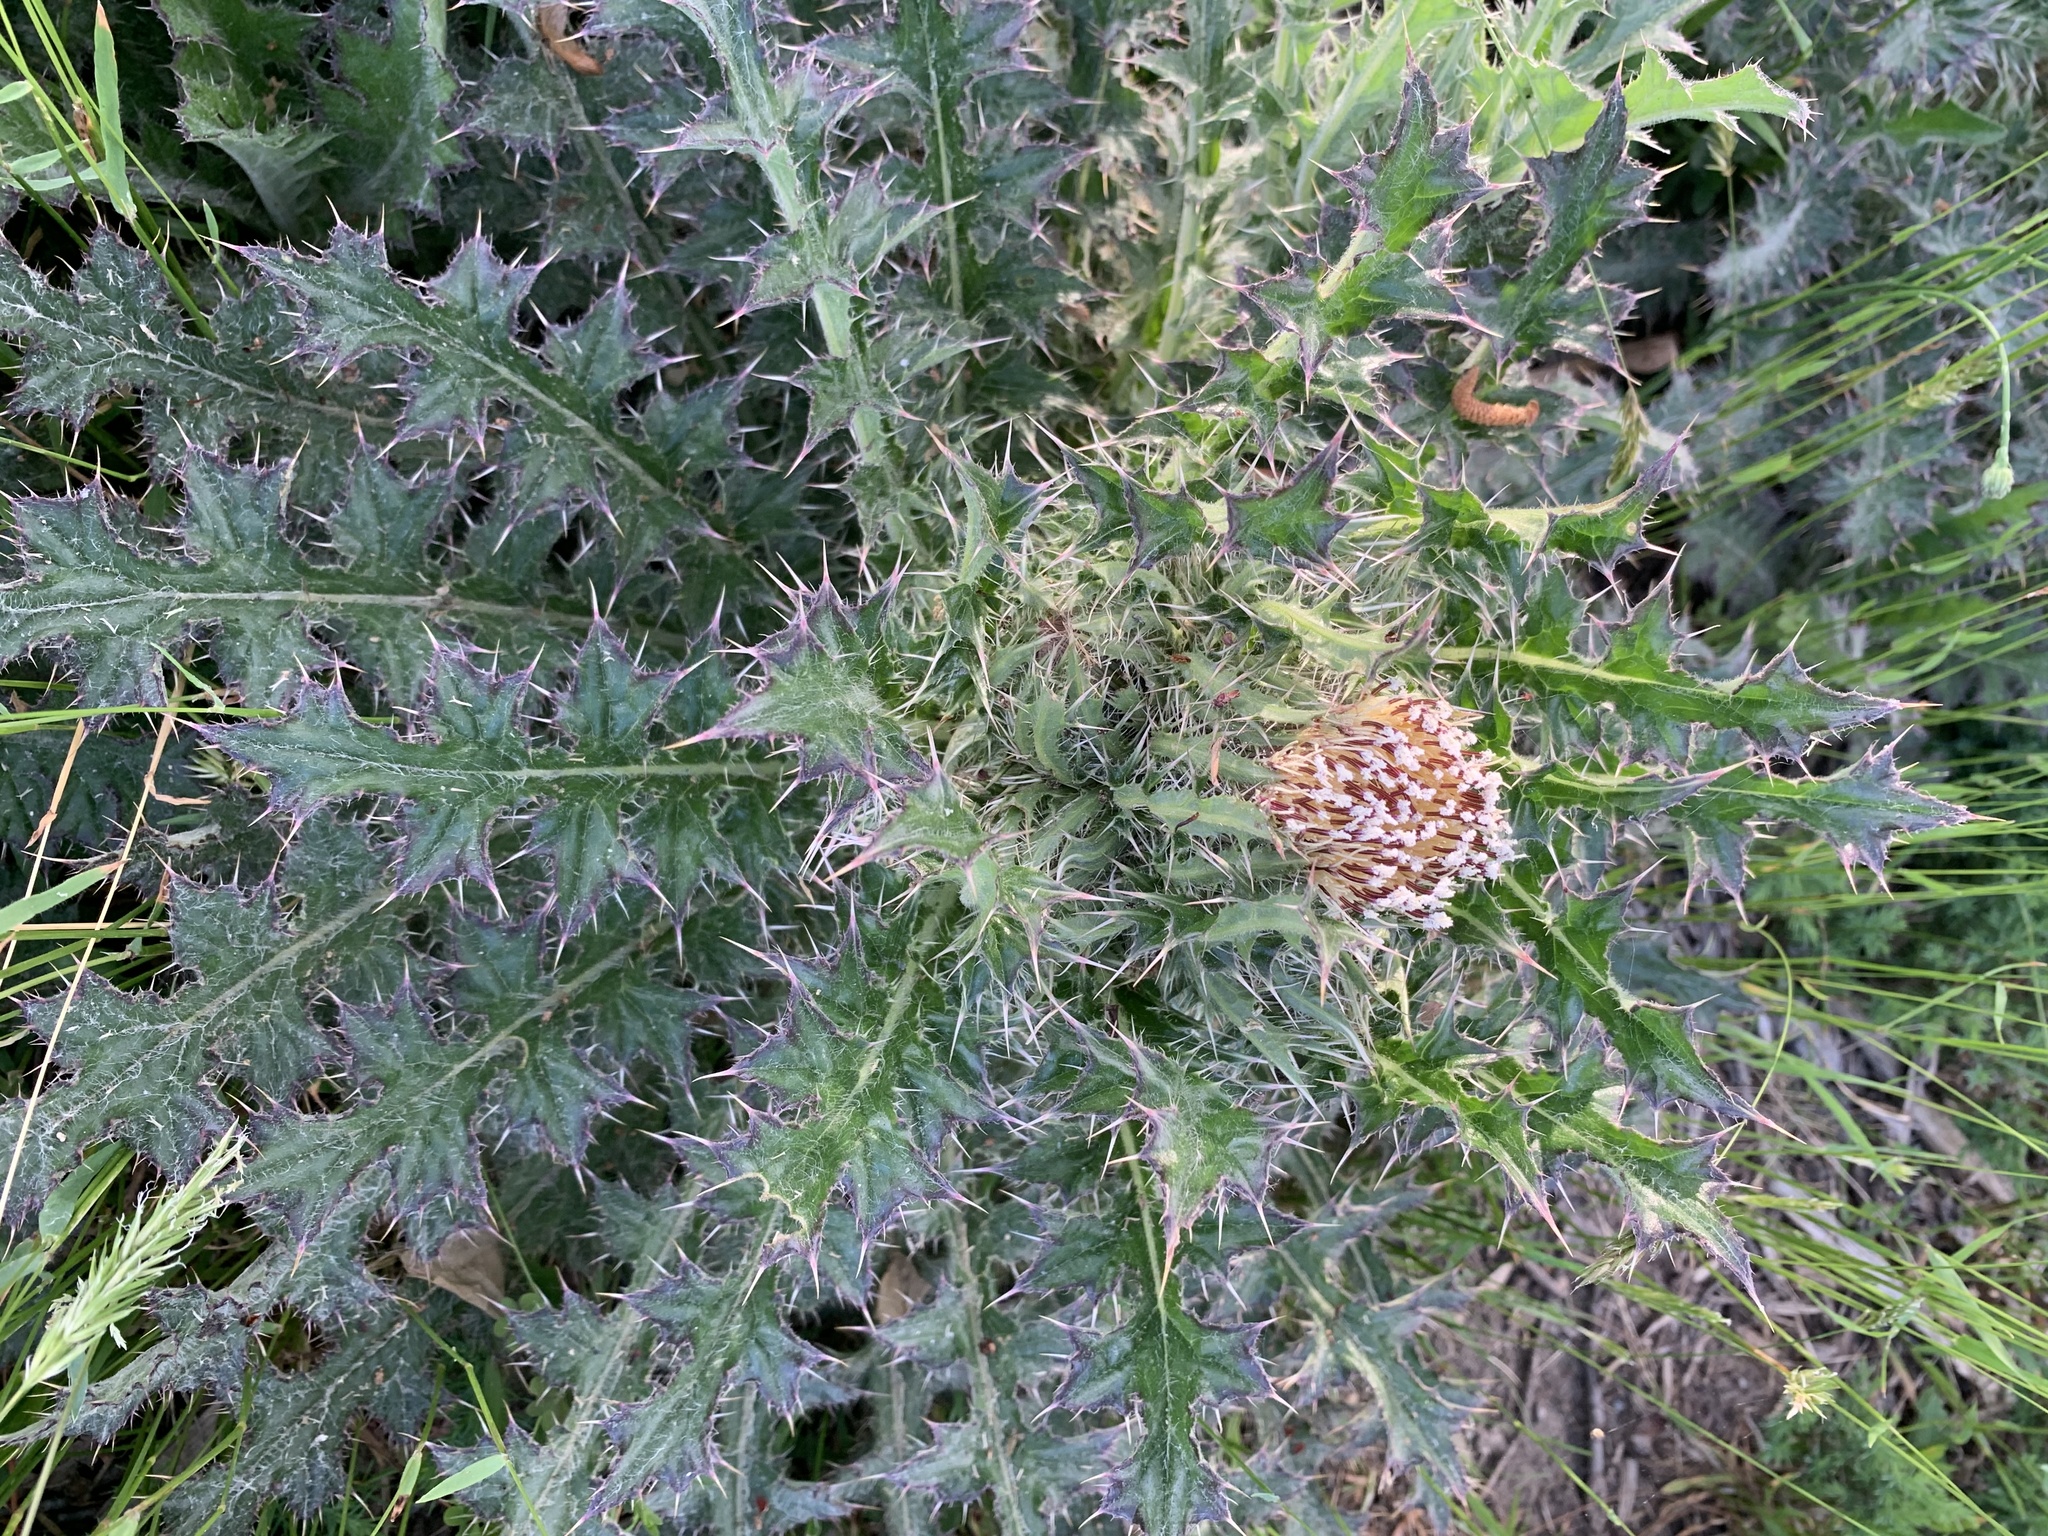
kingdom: Plantae
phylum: Tracheophyta
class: Magnoliopsida
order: Asterales
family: Asteraceae
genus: Cirsium
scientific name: Cirsium horridulum
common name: Bristly thistle
